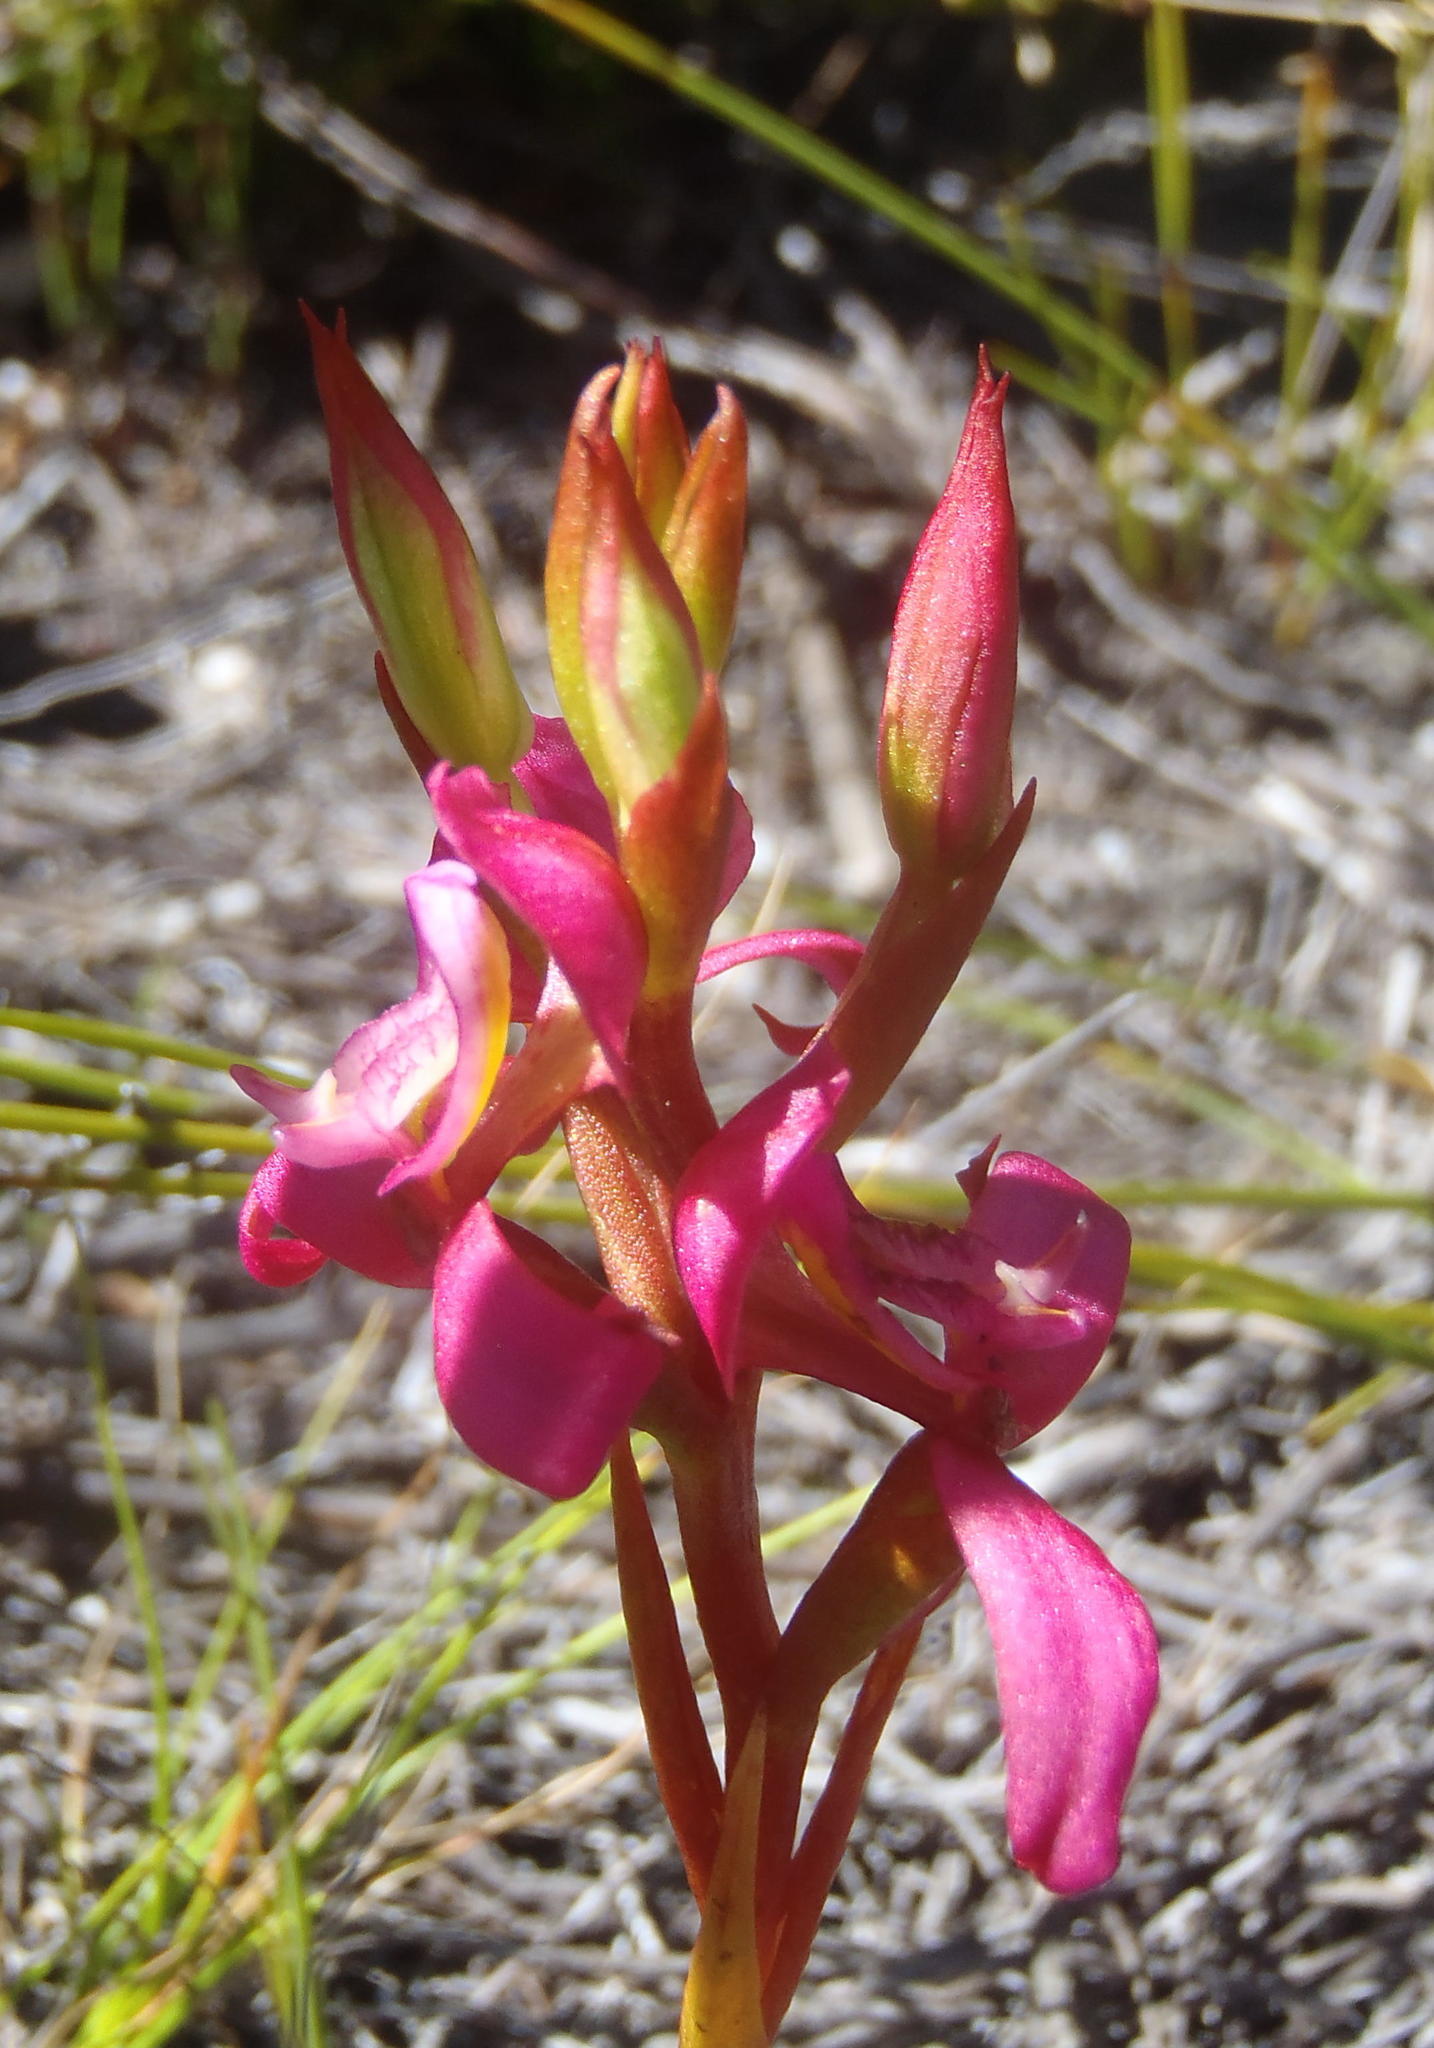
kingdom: Plantae
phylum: Tracheophyta
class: Liliopsida
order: Asparagales
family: Orchidaceae
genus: Disa
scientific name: Disa filicornis
